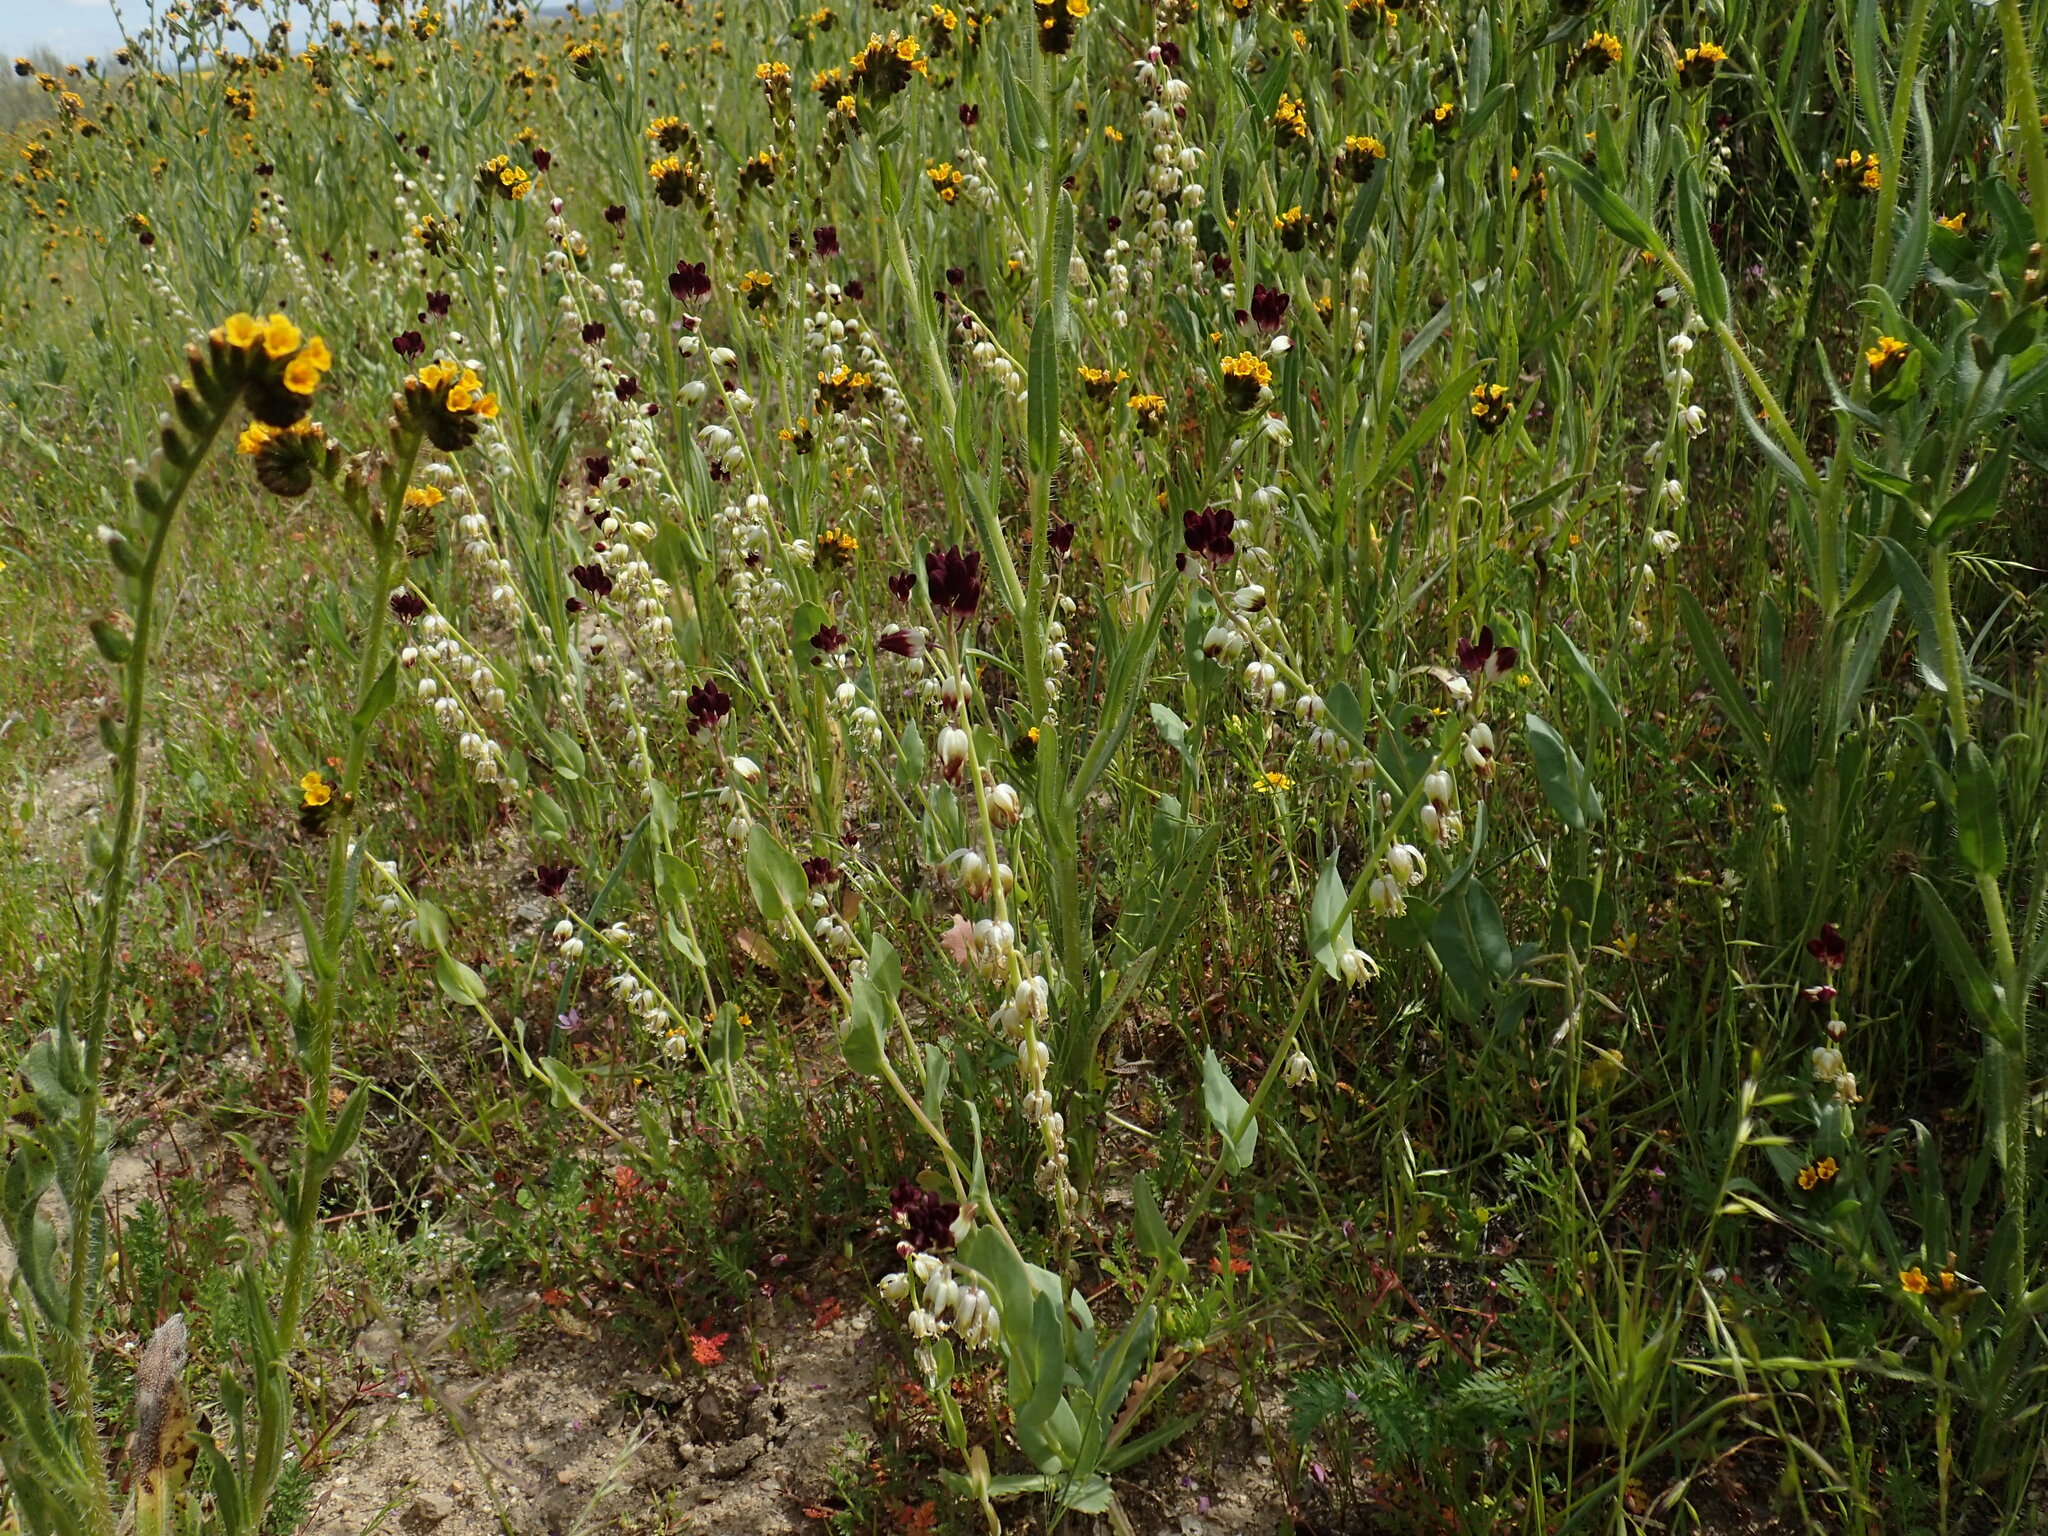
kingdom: Plantae
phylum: Tracheophyta
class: Magnoliopsida
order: Brassicales
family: Brassicaceae
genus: Streptanthus
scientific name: Streptanthus californicus
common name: California-jewel-flower
